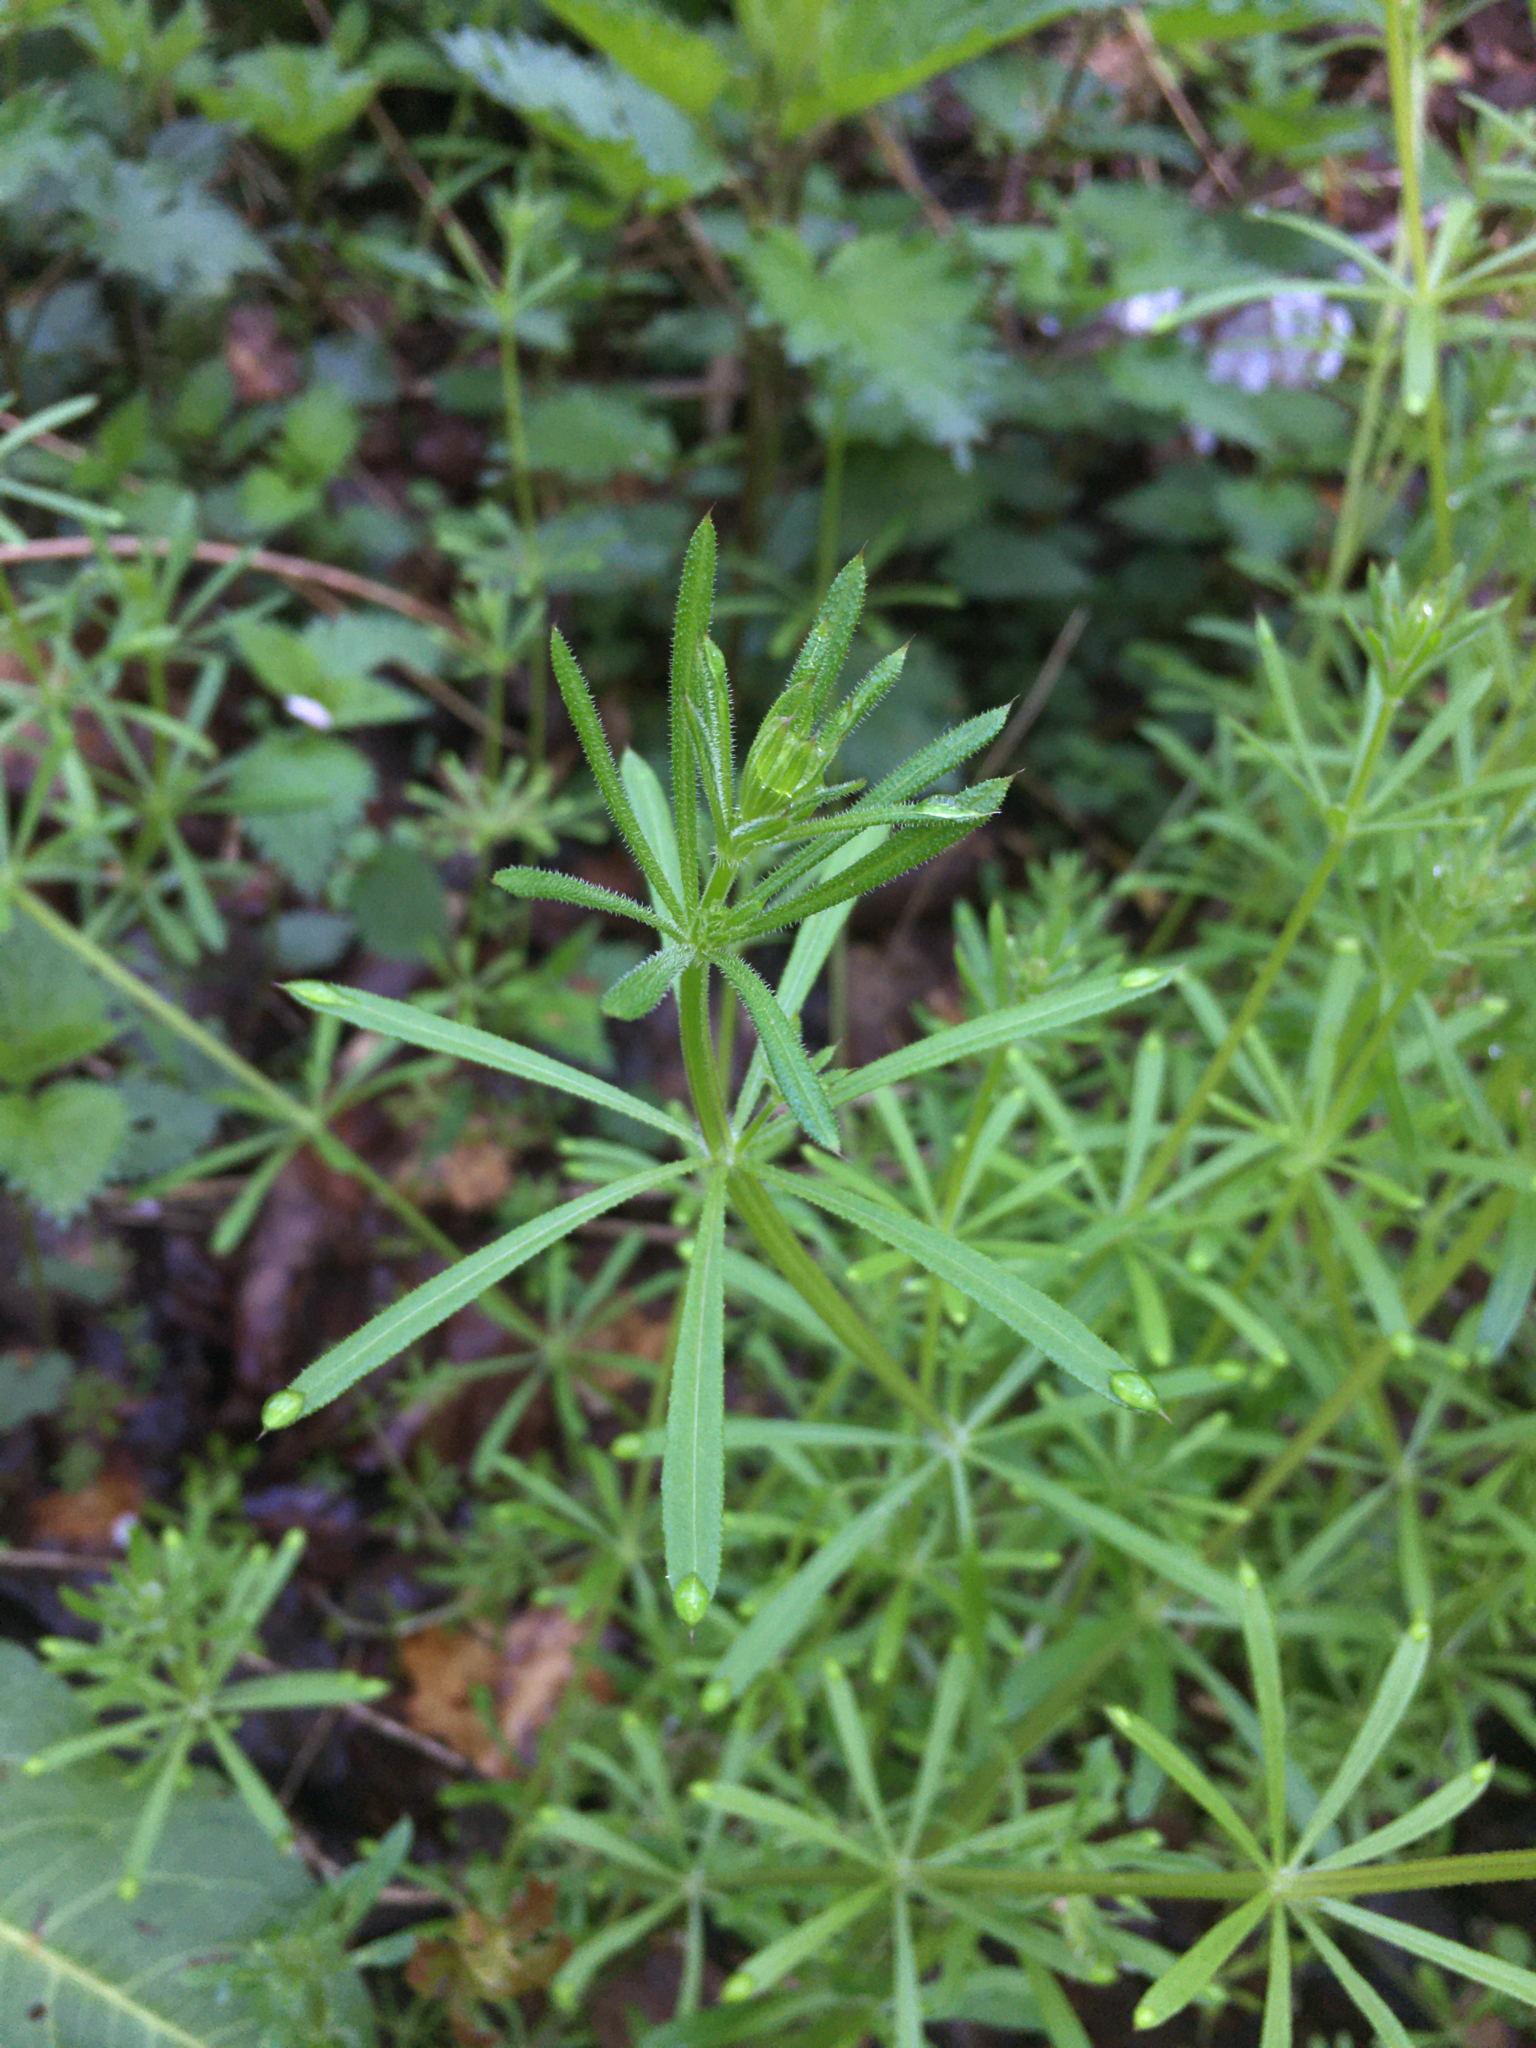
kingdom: Plantae
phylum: Tracheophyta
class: Magnoliopsida
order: Gentianales
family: Rubiaceae
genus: Galium
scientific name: Galium aparine
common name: Cleavers
